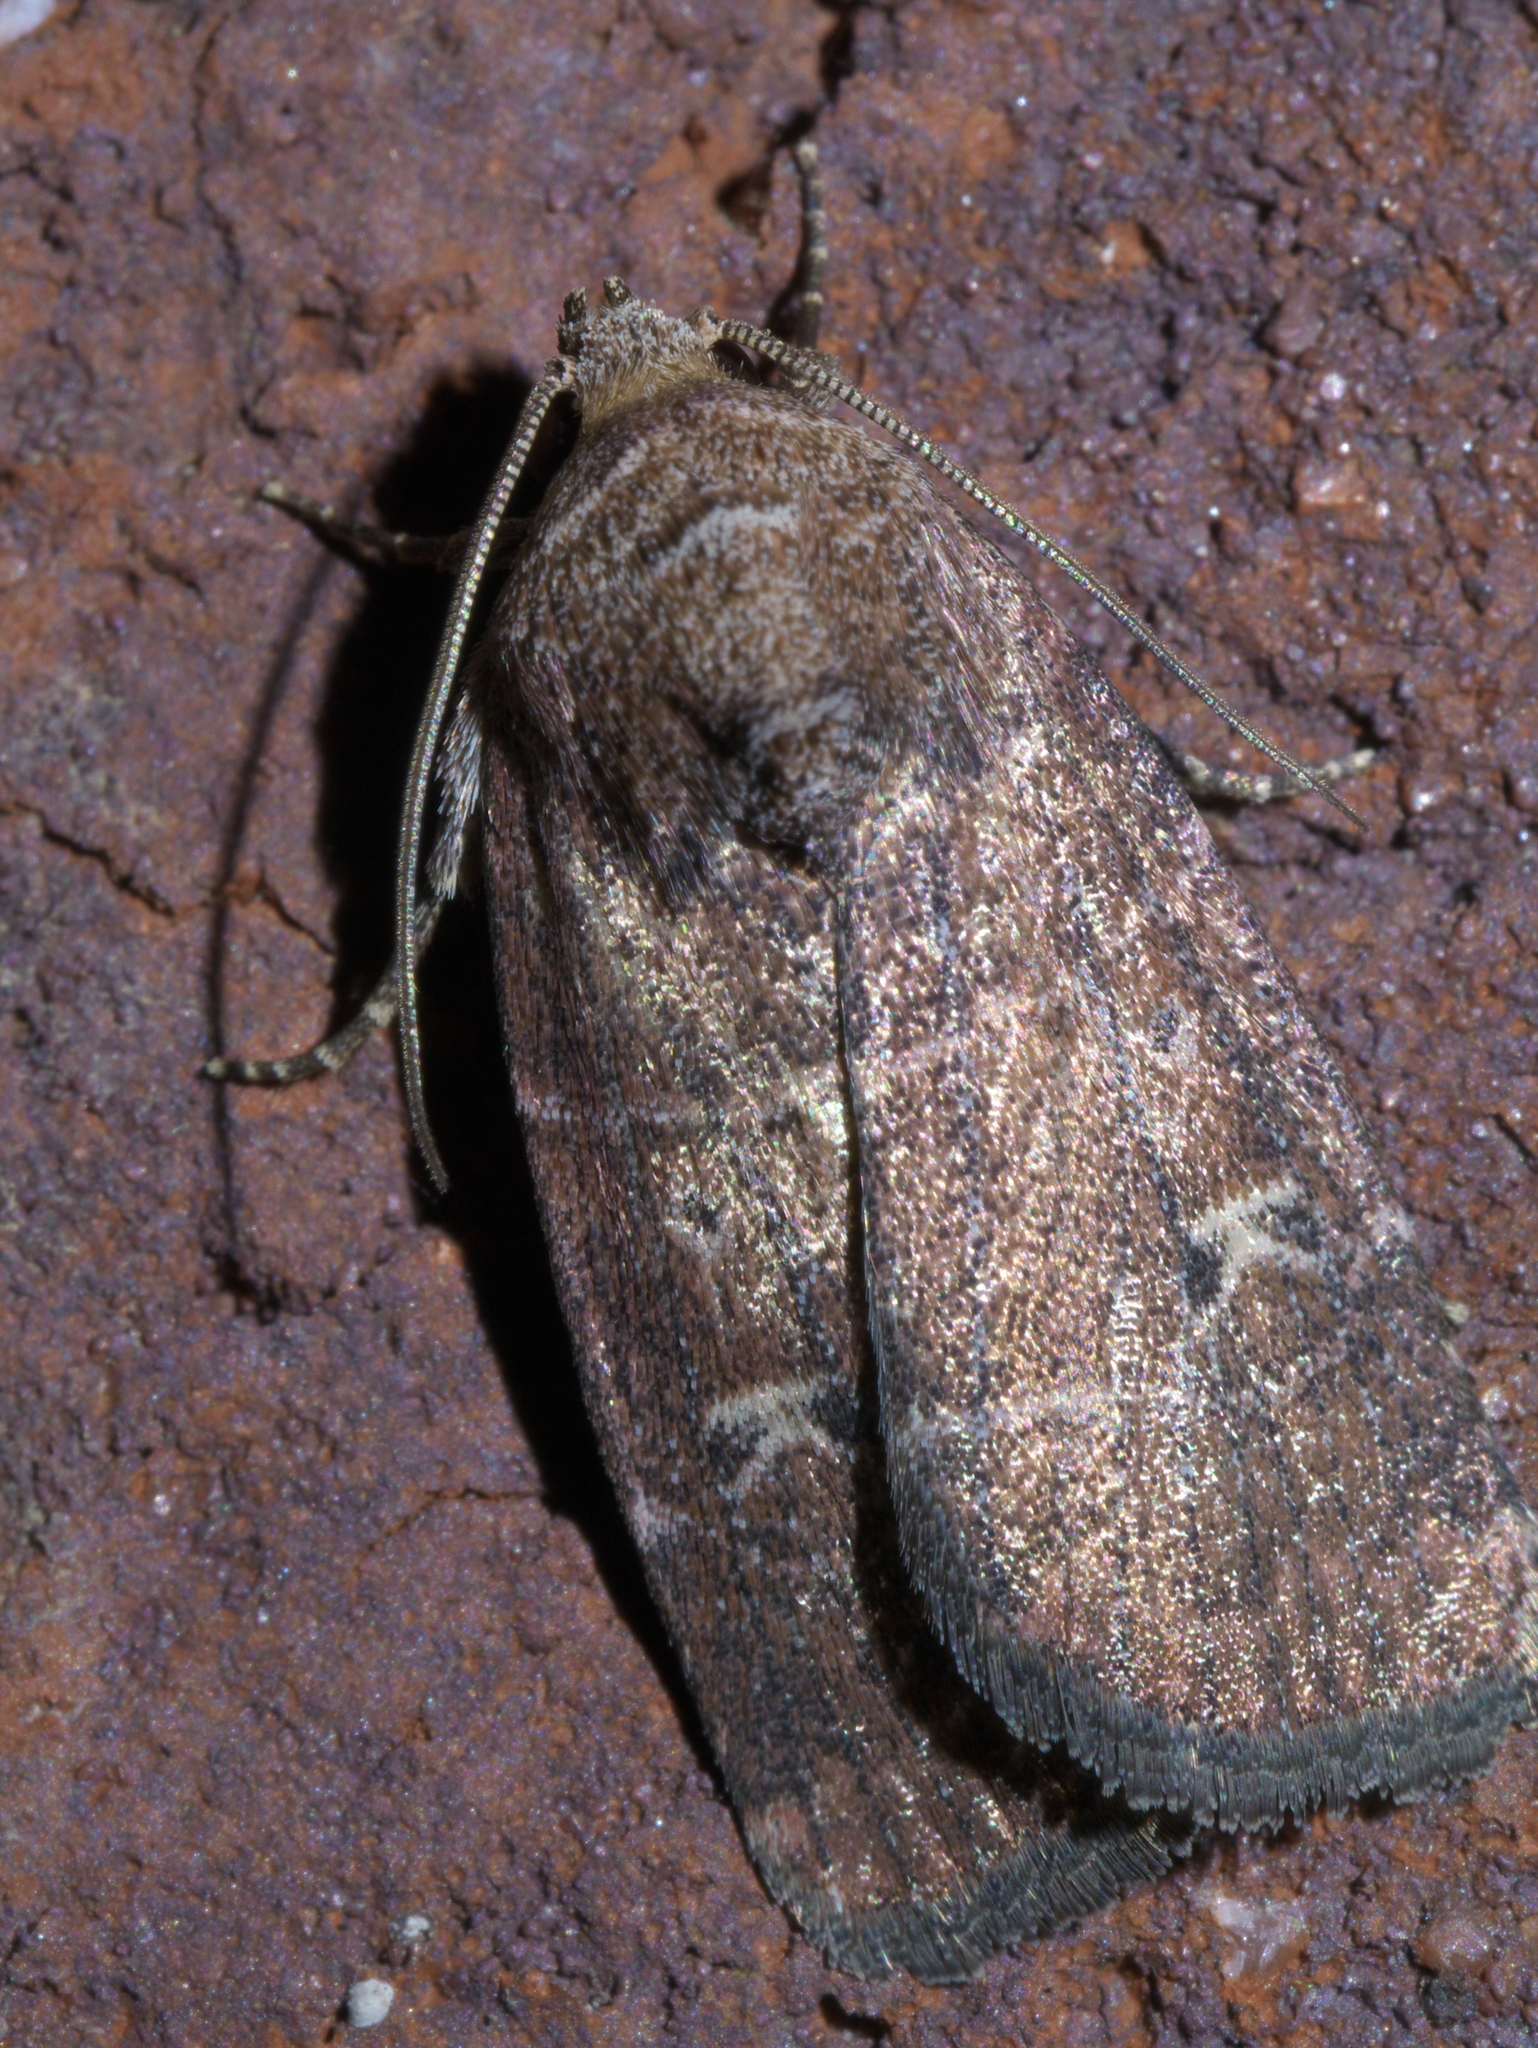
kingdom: Animalia
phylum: Arthropoda
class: Insecta
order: Lepidoptera
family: Noctuidae
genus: Elaphria
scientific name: Elaphria grata
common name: Grateful midget moth
